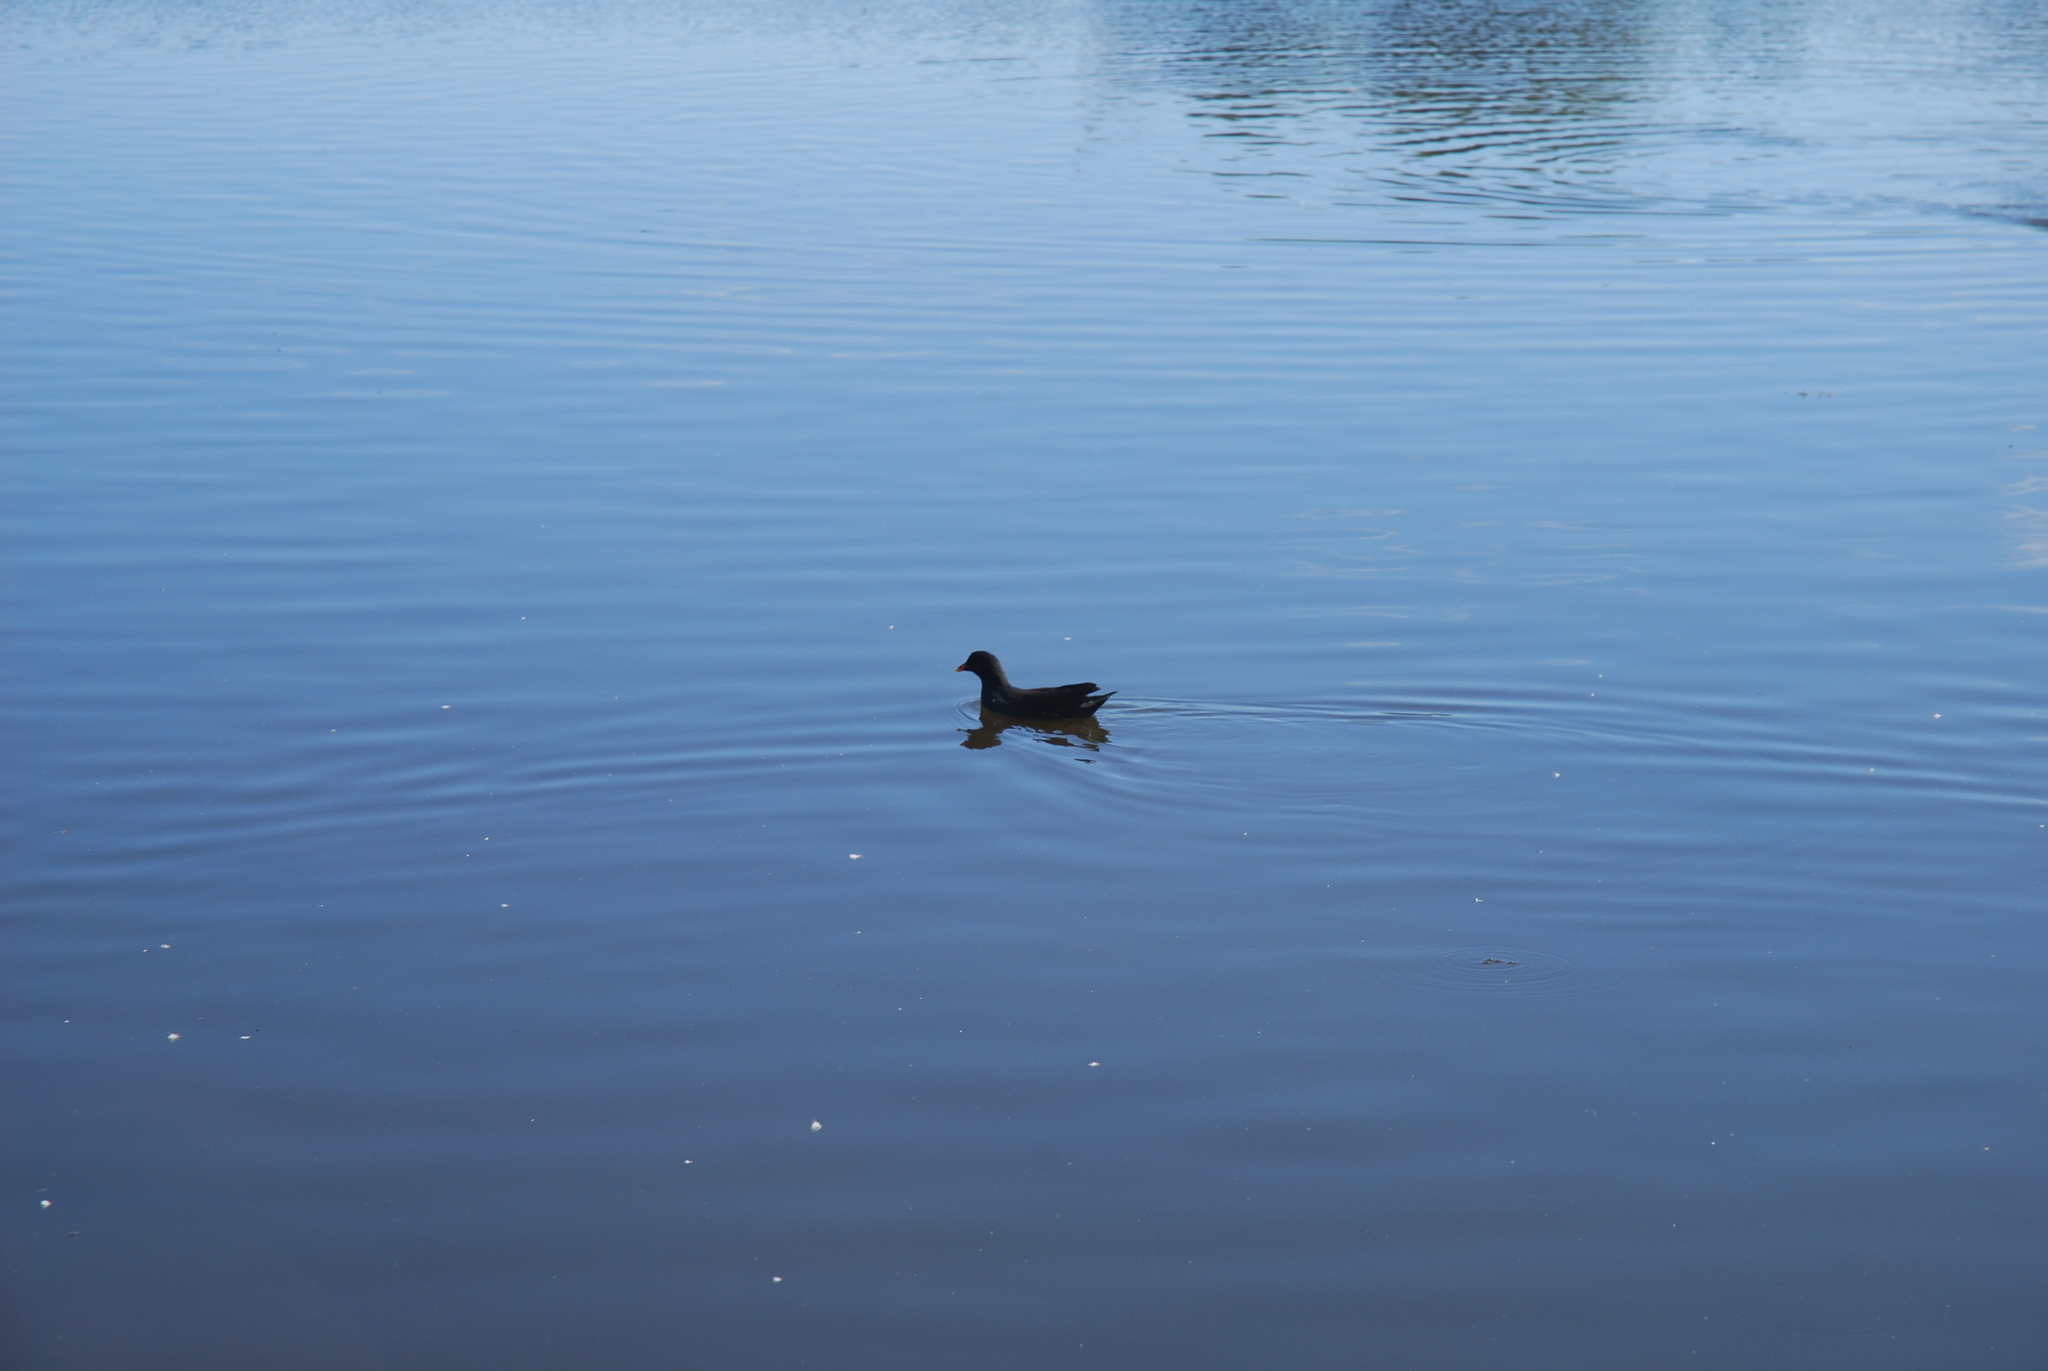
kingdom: Animalia
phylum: Chordata
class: Aves
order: Gruiformes
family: Rallidae
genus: Gallinula
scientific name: Gallinula chloropus
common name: Common moorhen
